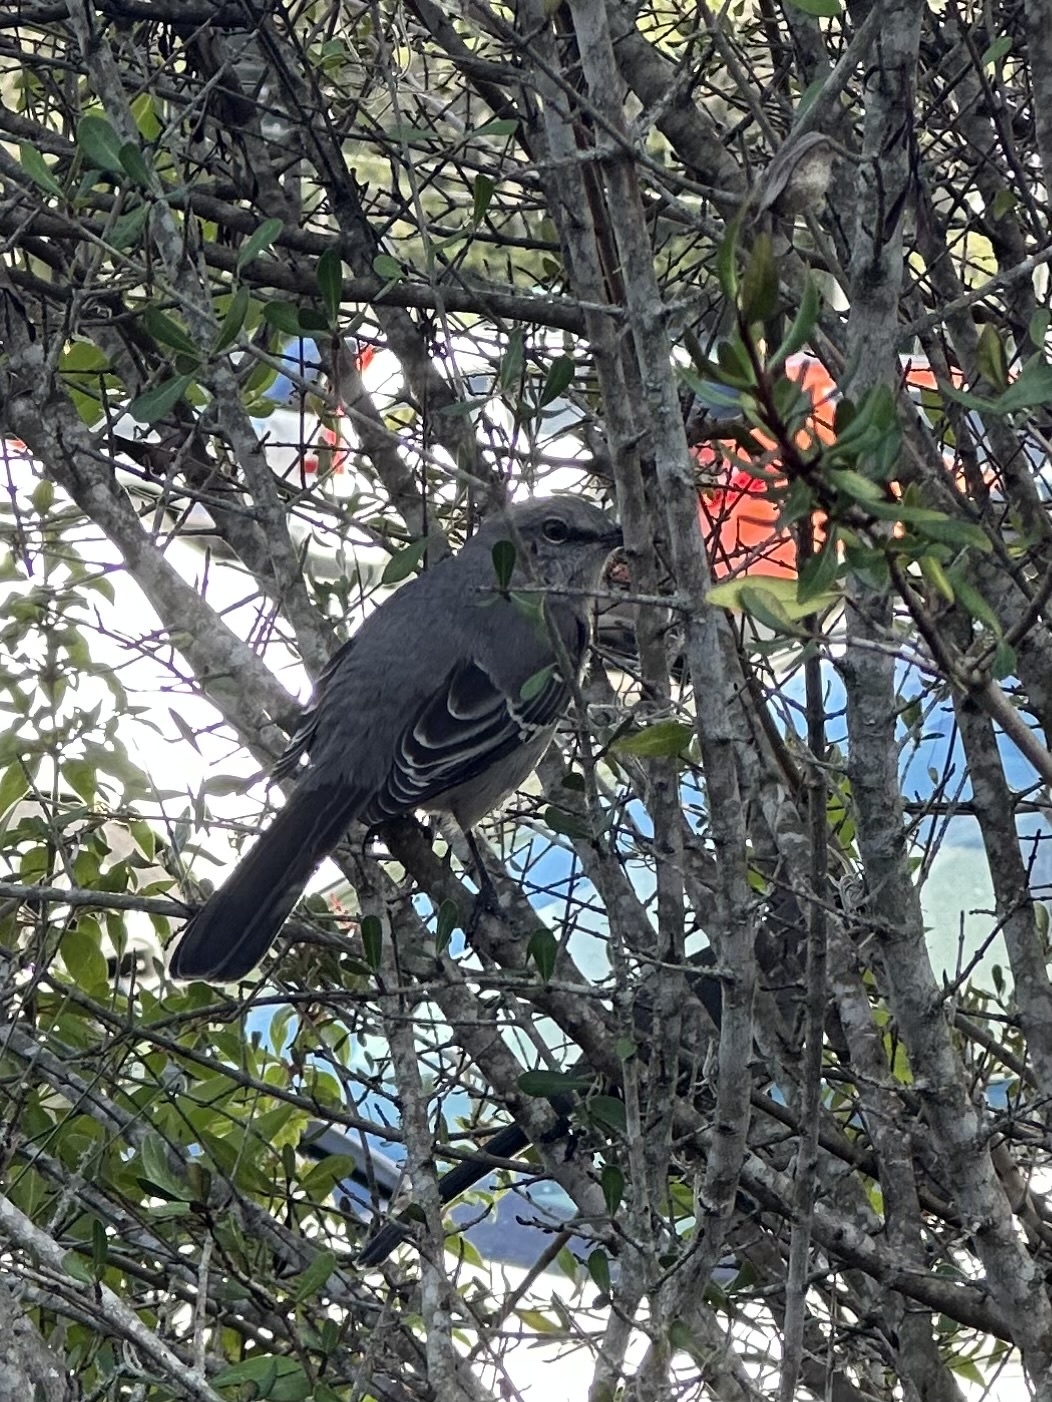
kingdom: Animalia
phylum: Chordata
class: Aves
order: Passeriformes
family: Mimidae
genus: Mimus
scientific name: Mimus polyglottos
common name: Northern mockingbird
